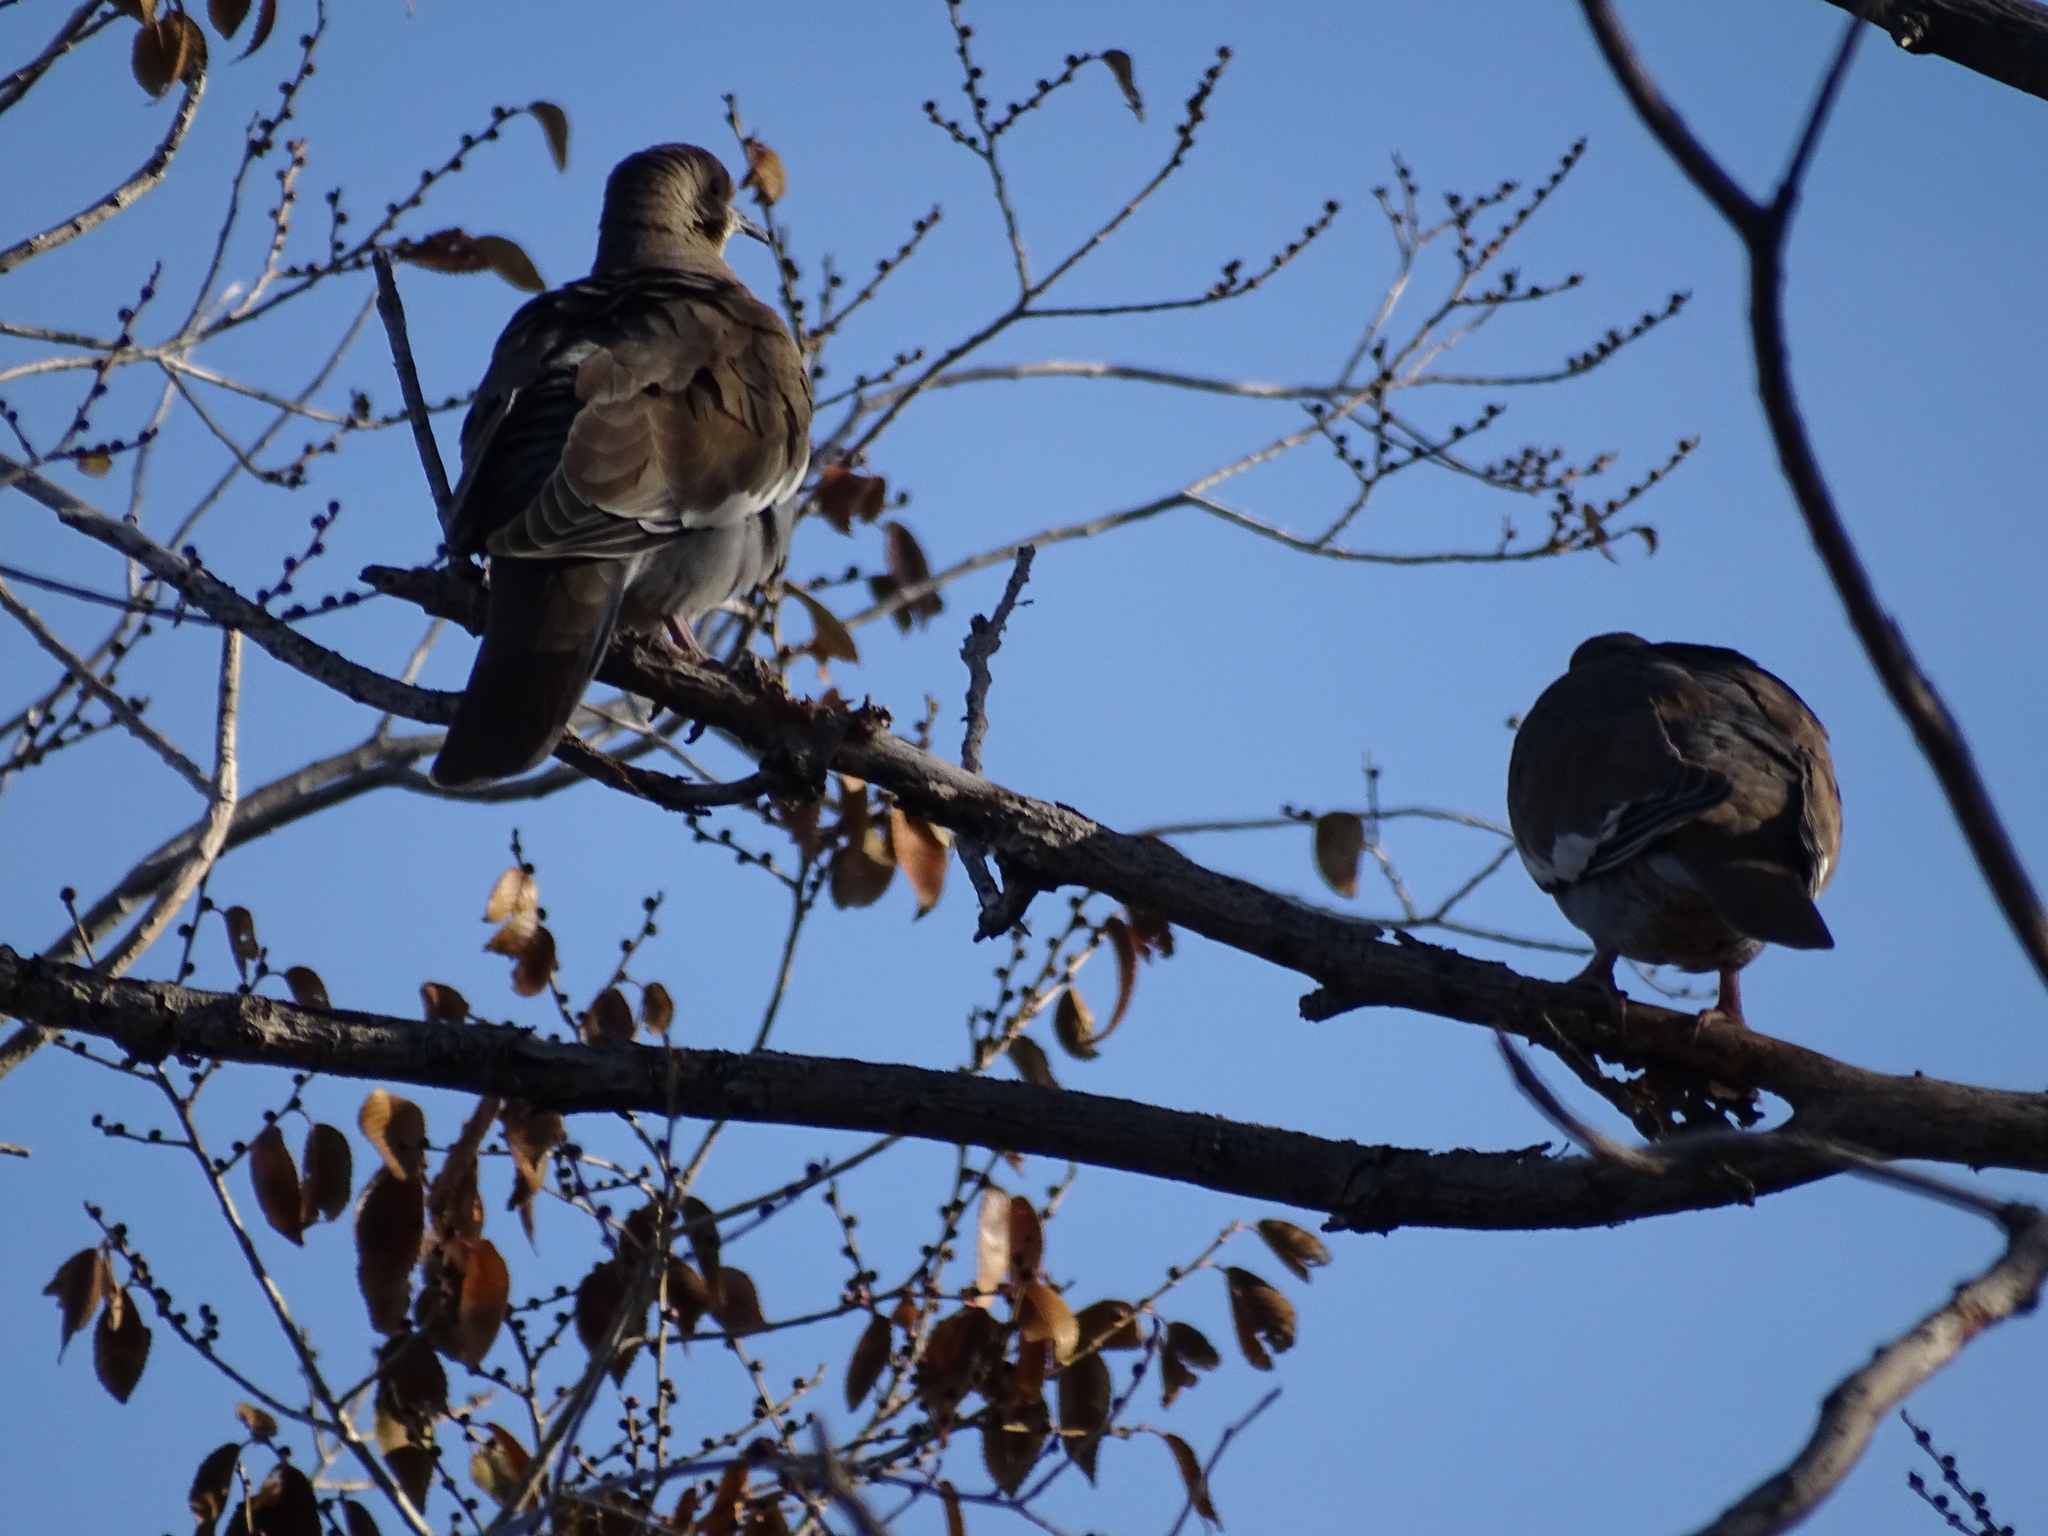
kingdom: Animalia
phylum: Chordata
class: Aves
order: Columbiformes
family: Columbidae
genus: Zenaida
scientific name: Zenaida asiatica
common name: White-winged dove
